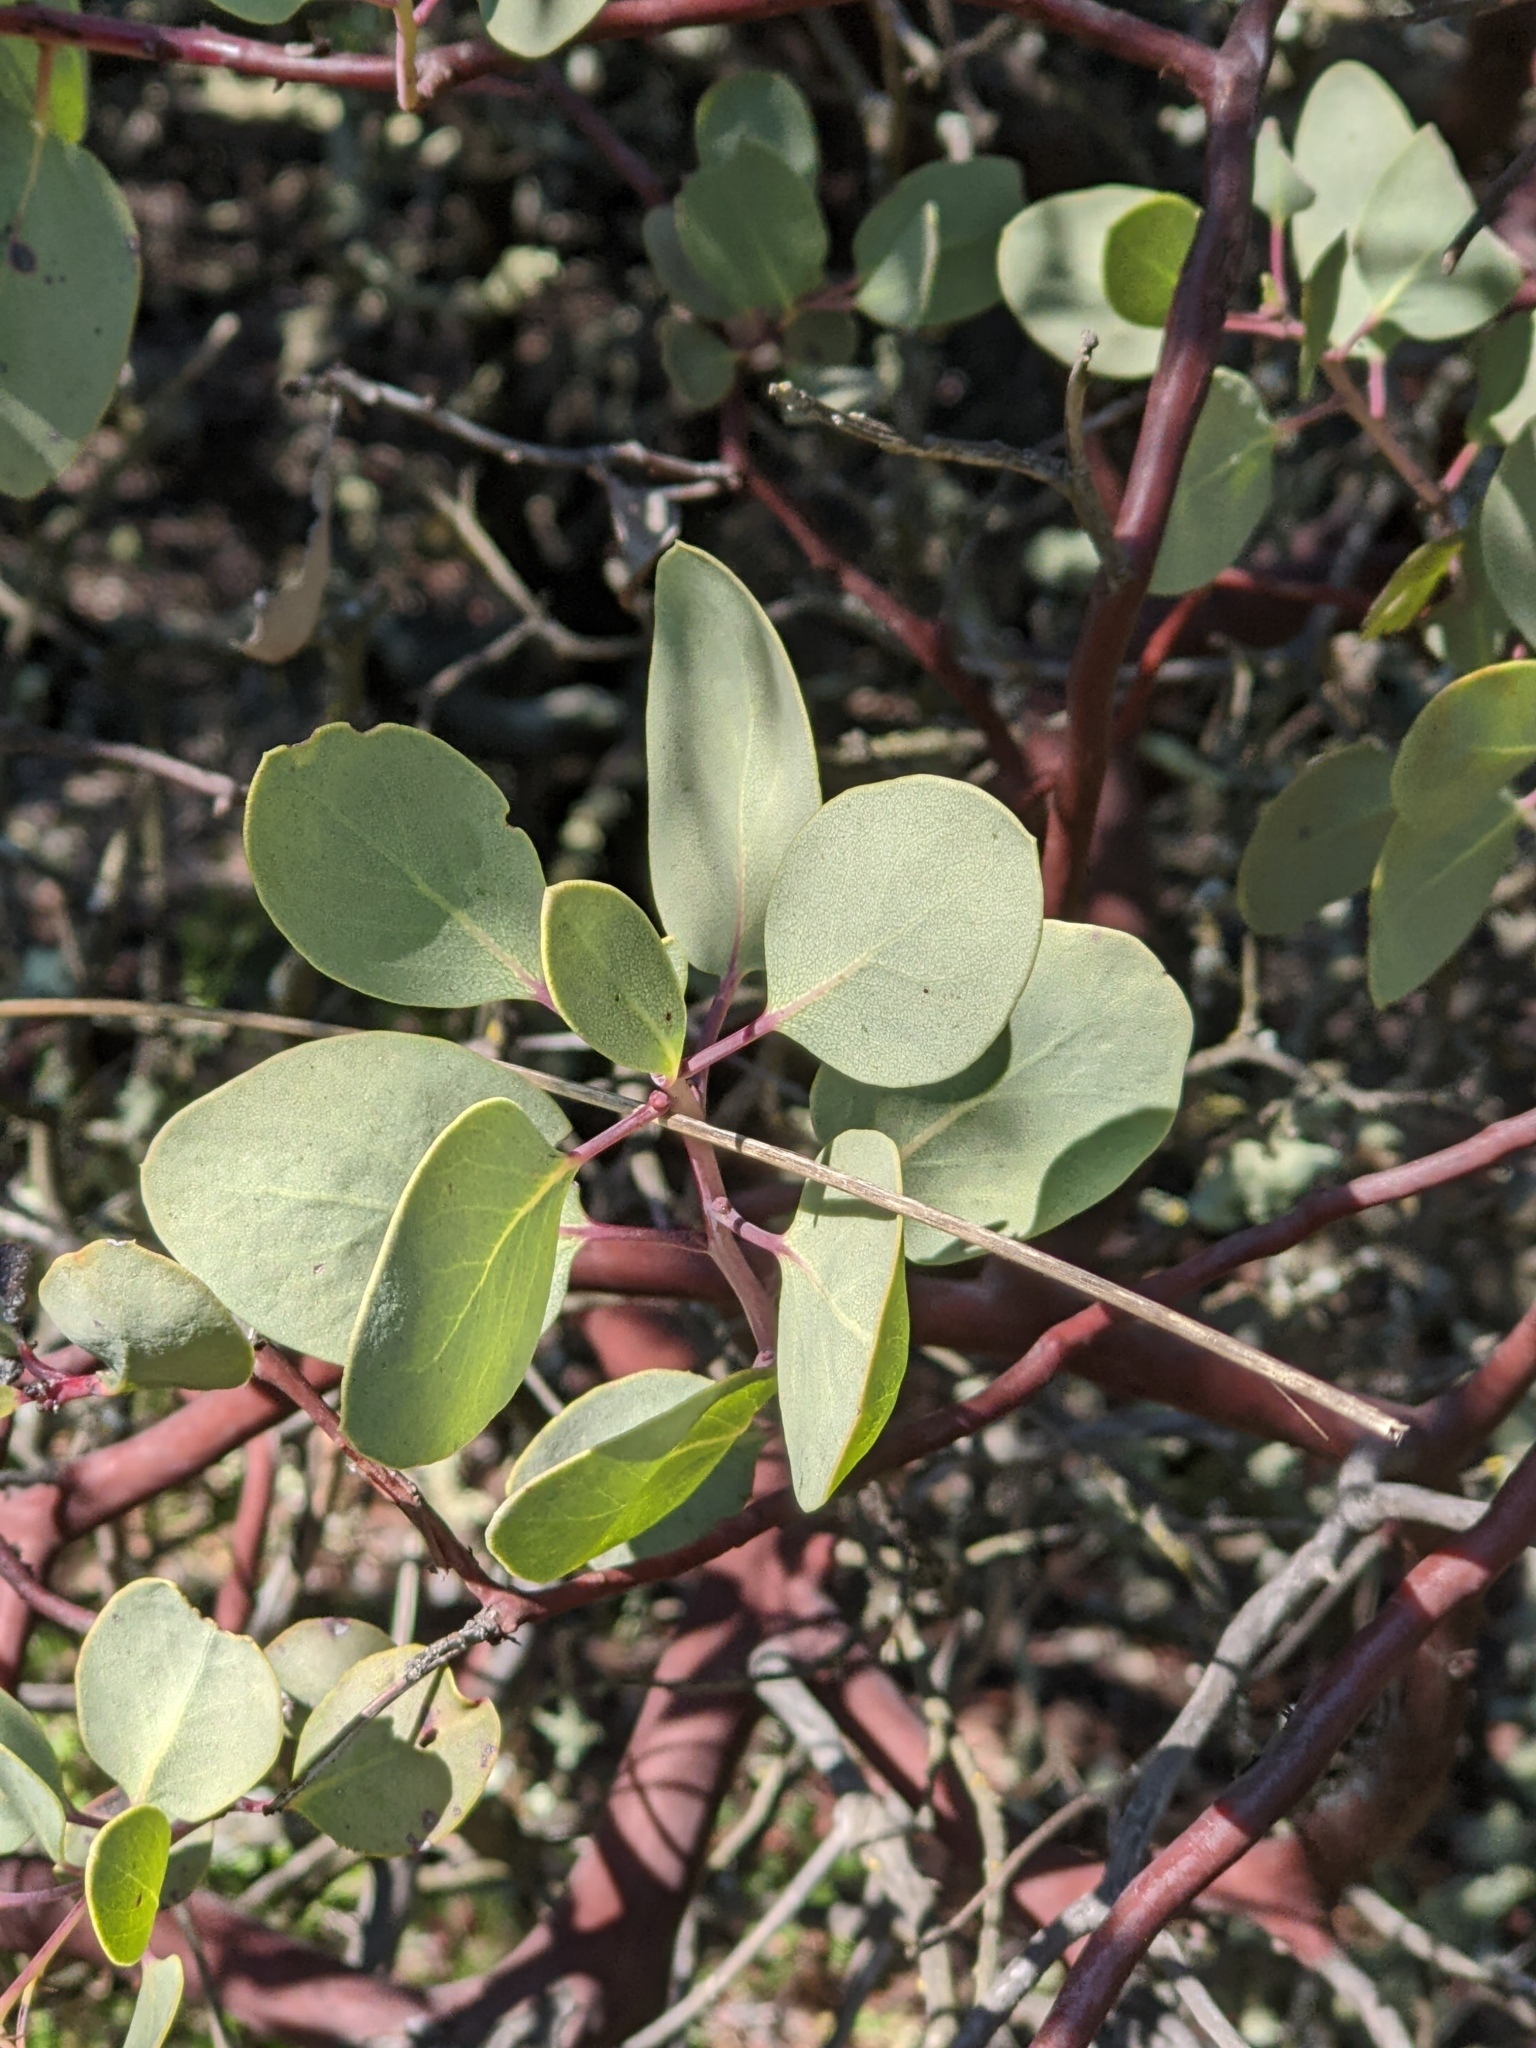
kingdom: Plantae
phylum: Tracheophyta
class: Magnoliopsida
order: Ericales
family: Ericaceae
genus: Arctostaphylos
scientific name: Arctostaphylos glauca
